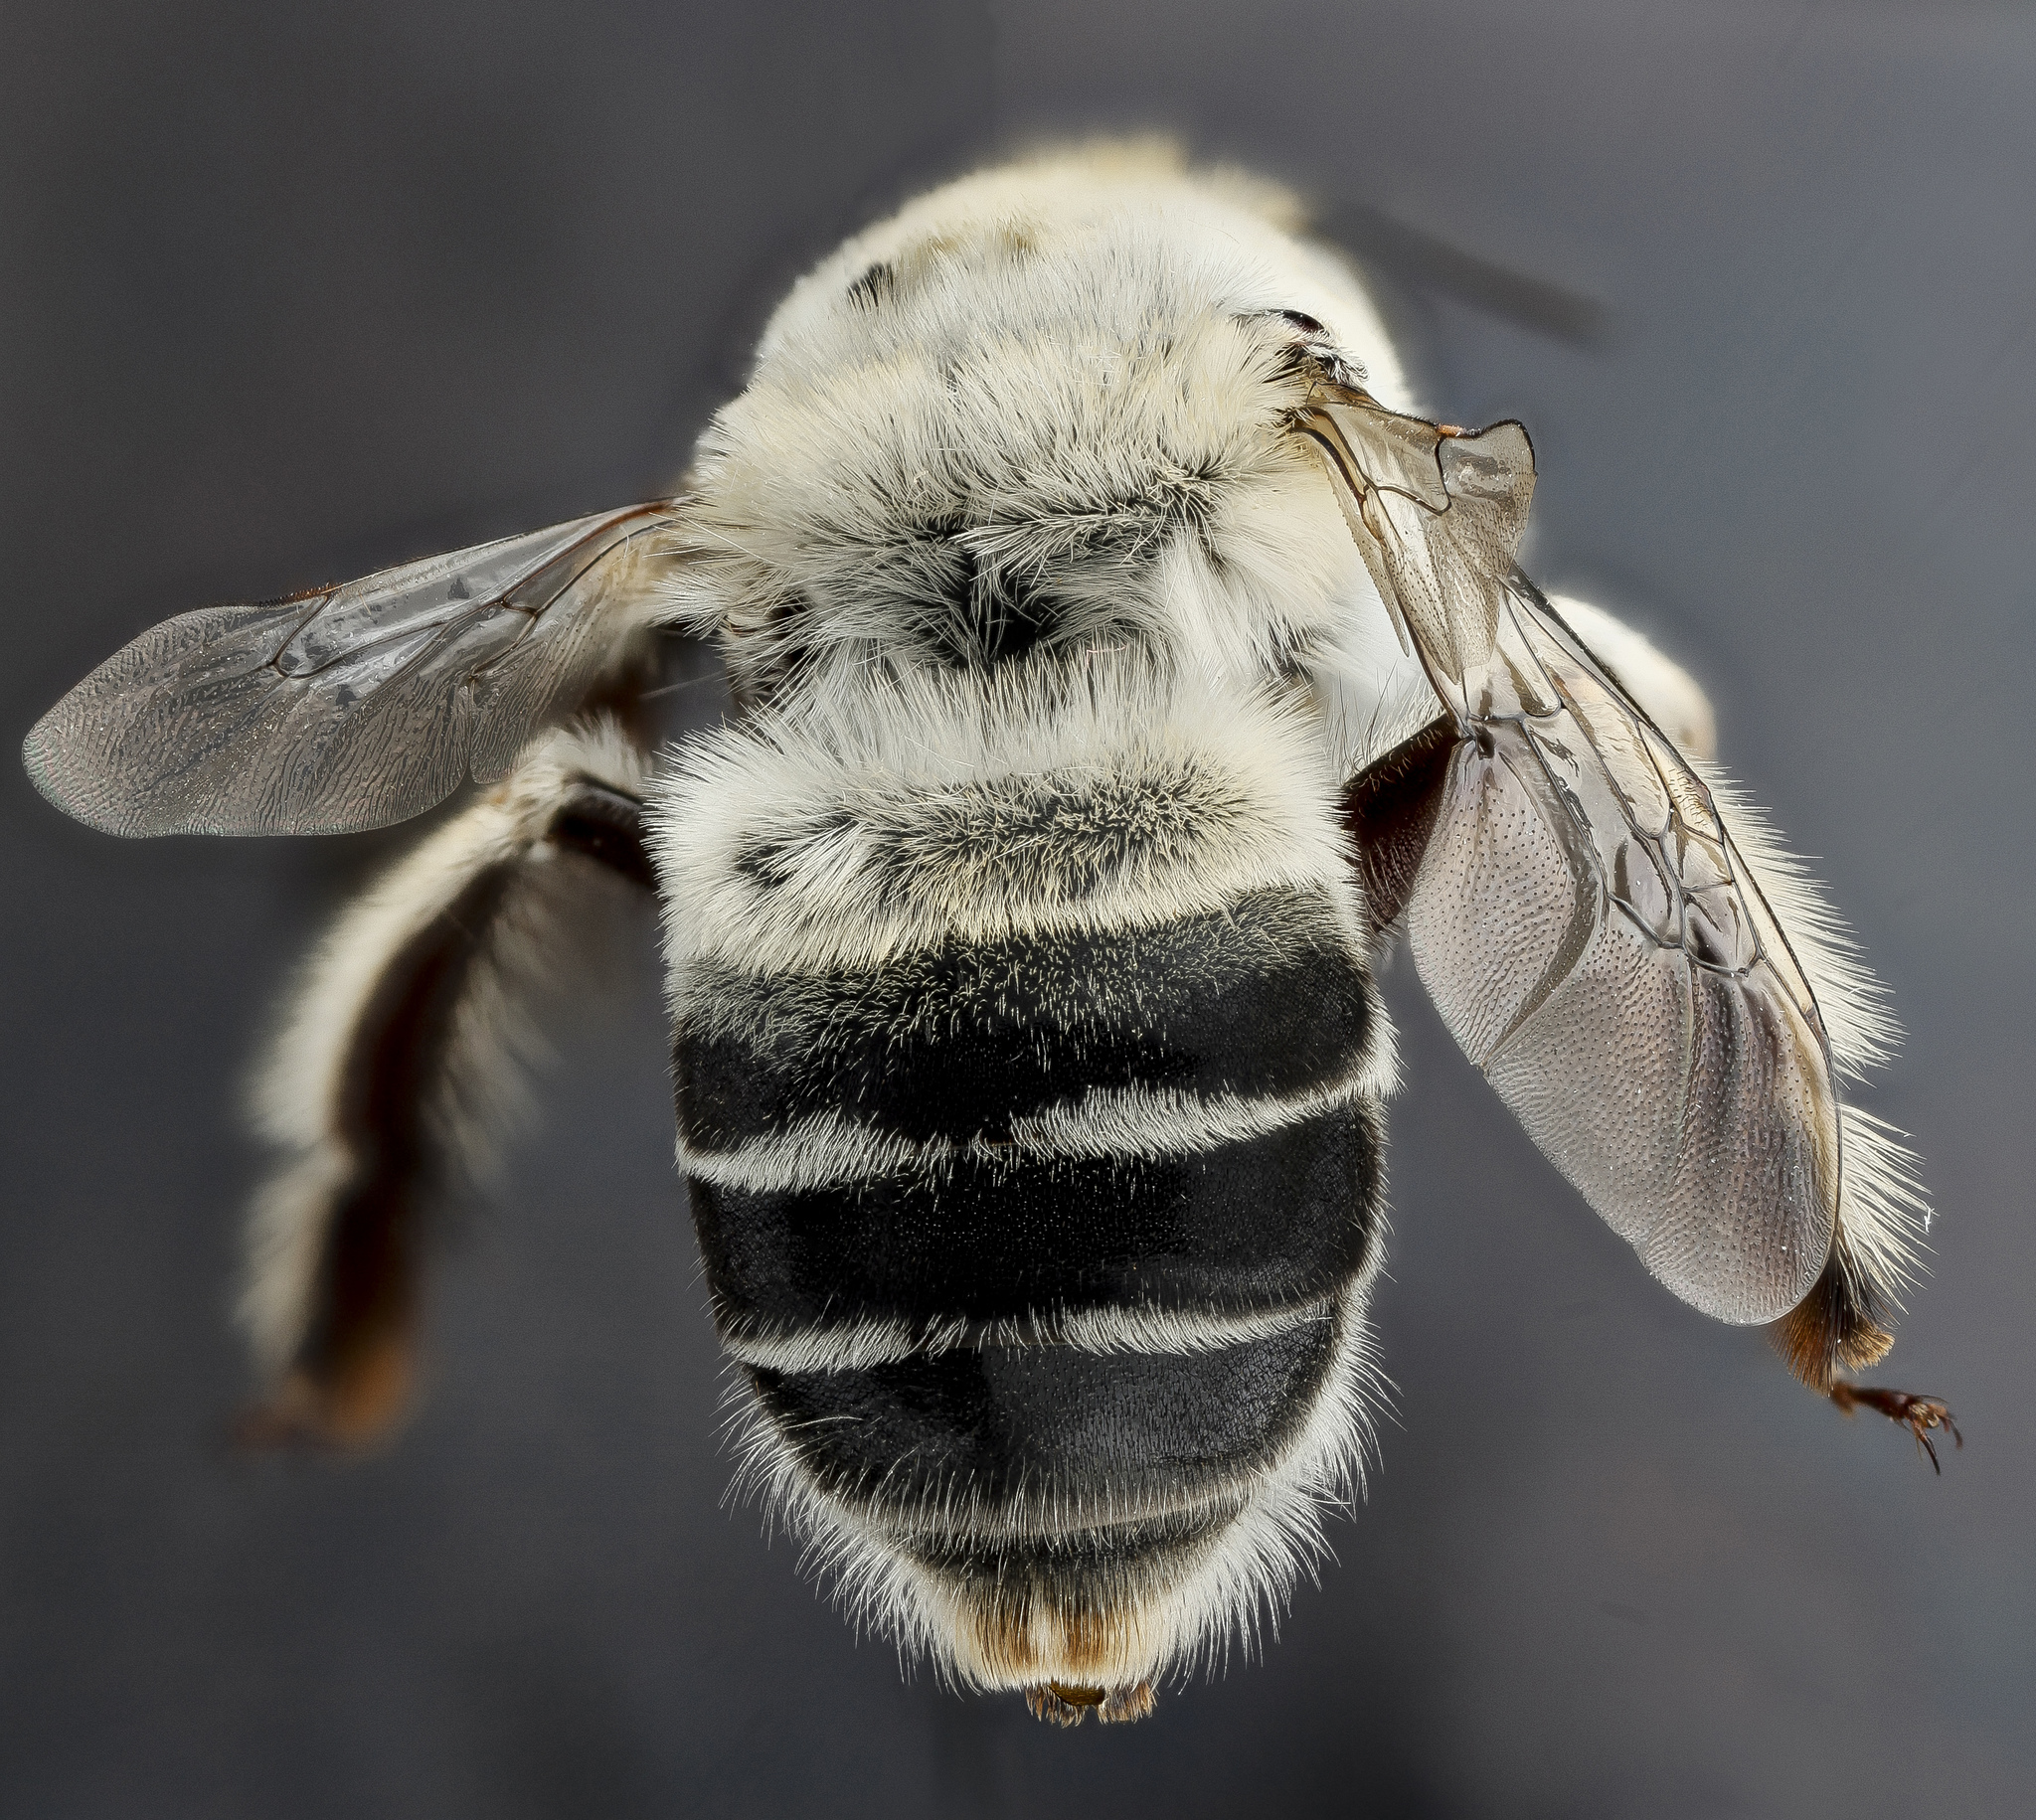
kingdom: Animalia
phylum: Arthropoda
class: Insecta
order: Hymenoptera
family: Apidae
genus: Anthophora
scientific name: Anthophora affabilis
